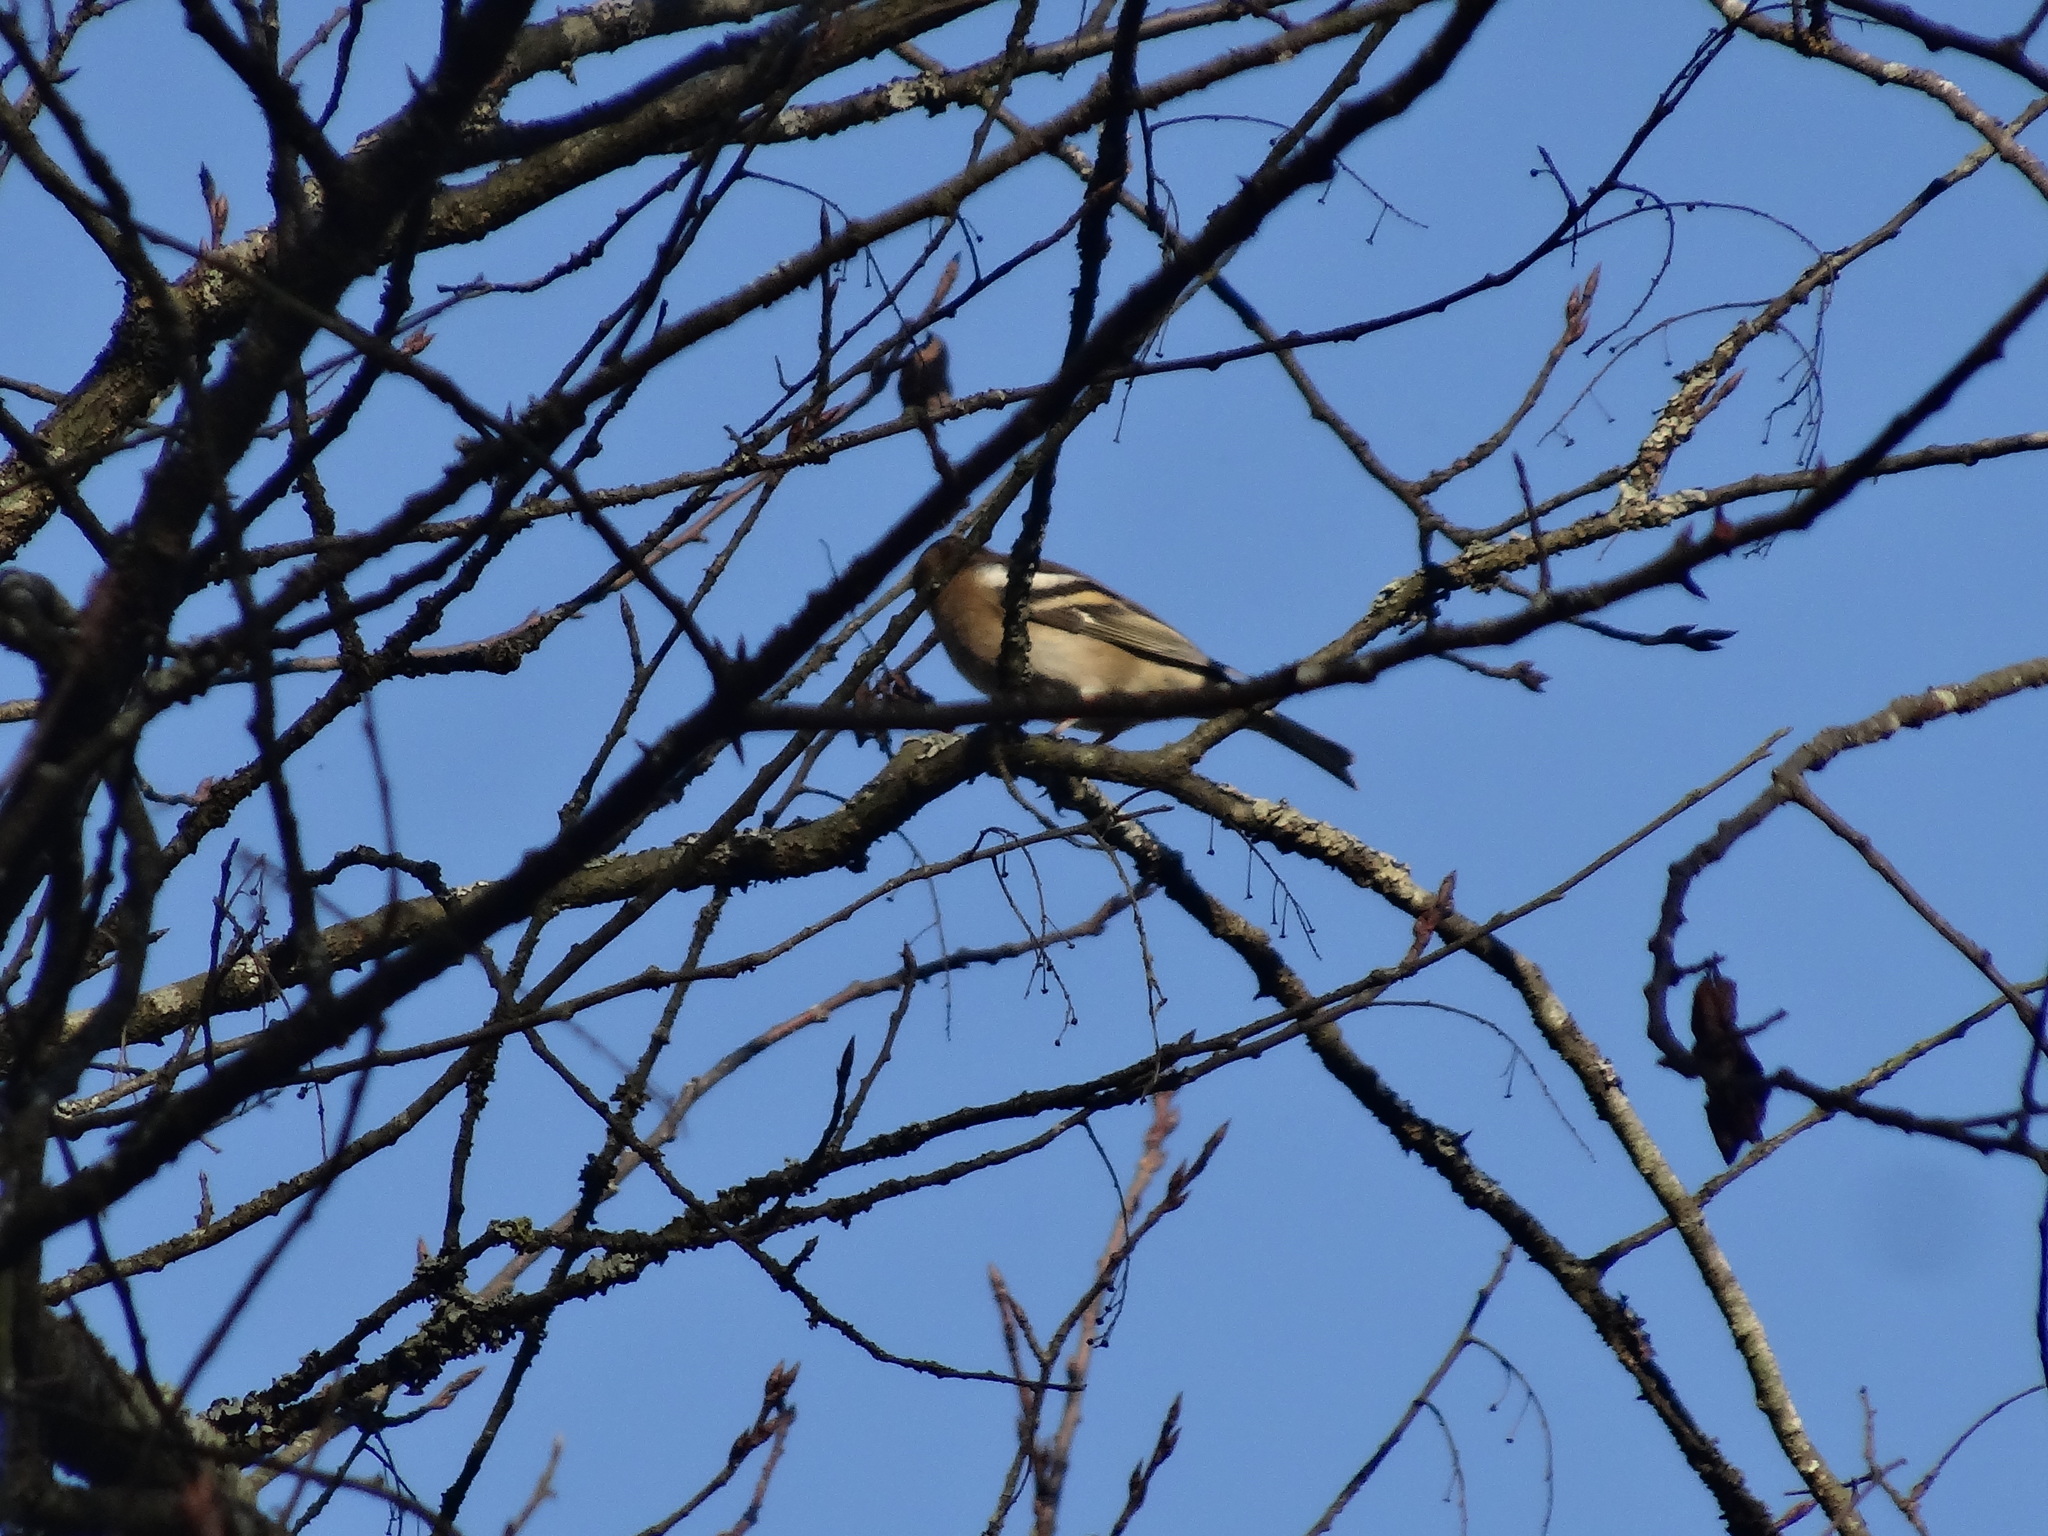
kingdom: Animalia
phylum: Chordata
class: Aves
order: Passeriformes
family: Fringillidae
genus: Fringilla
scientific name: Fringilla coelebs
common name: Common chaffinch
